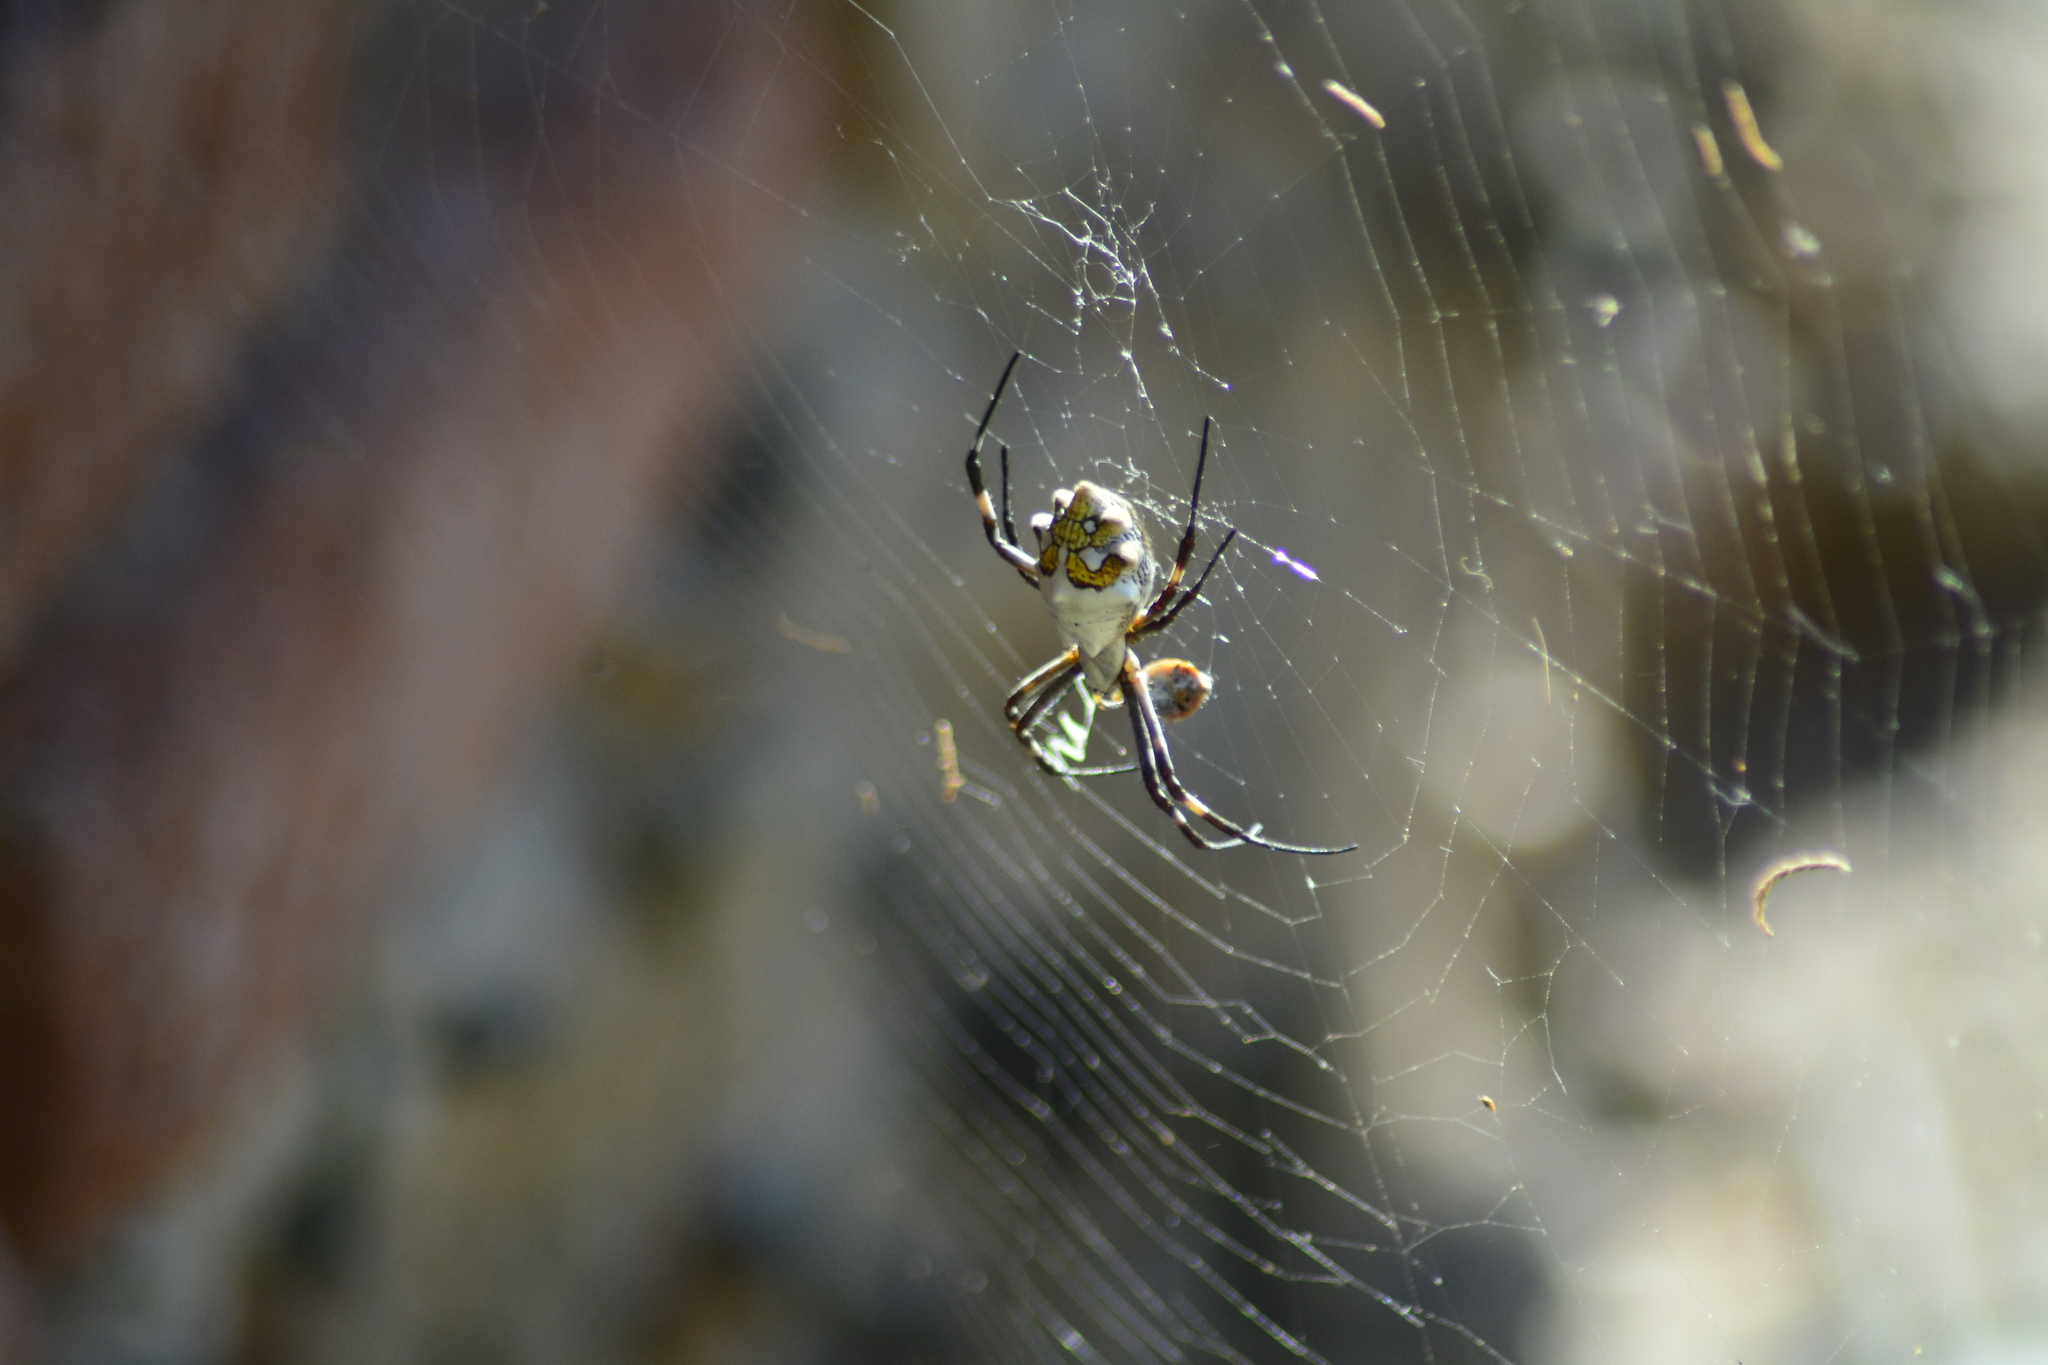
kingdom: Animalia
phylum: Arthropoda
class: Arachnida
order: Araneae
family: Araneidae
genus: Argiope
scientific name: Argiope argentata
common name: Orb weavers
